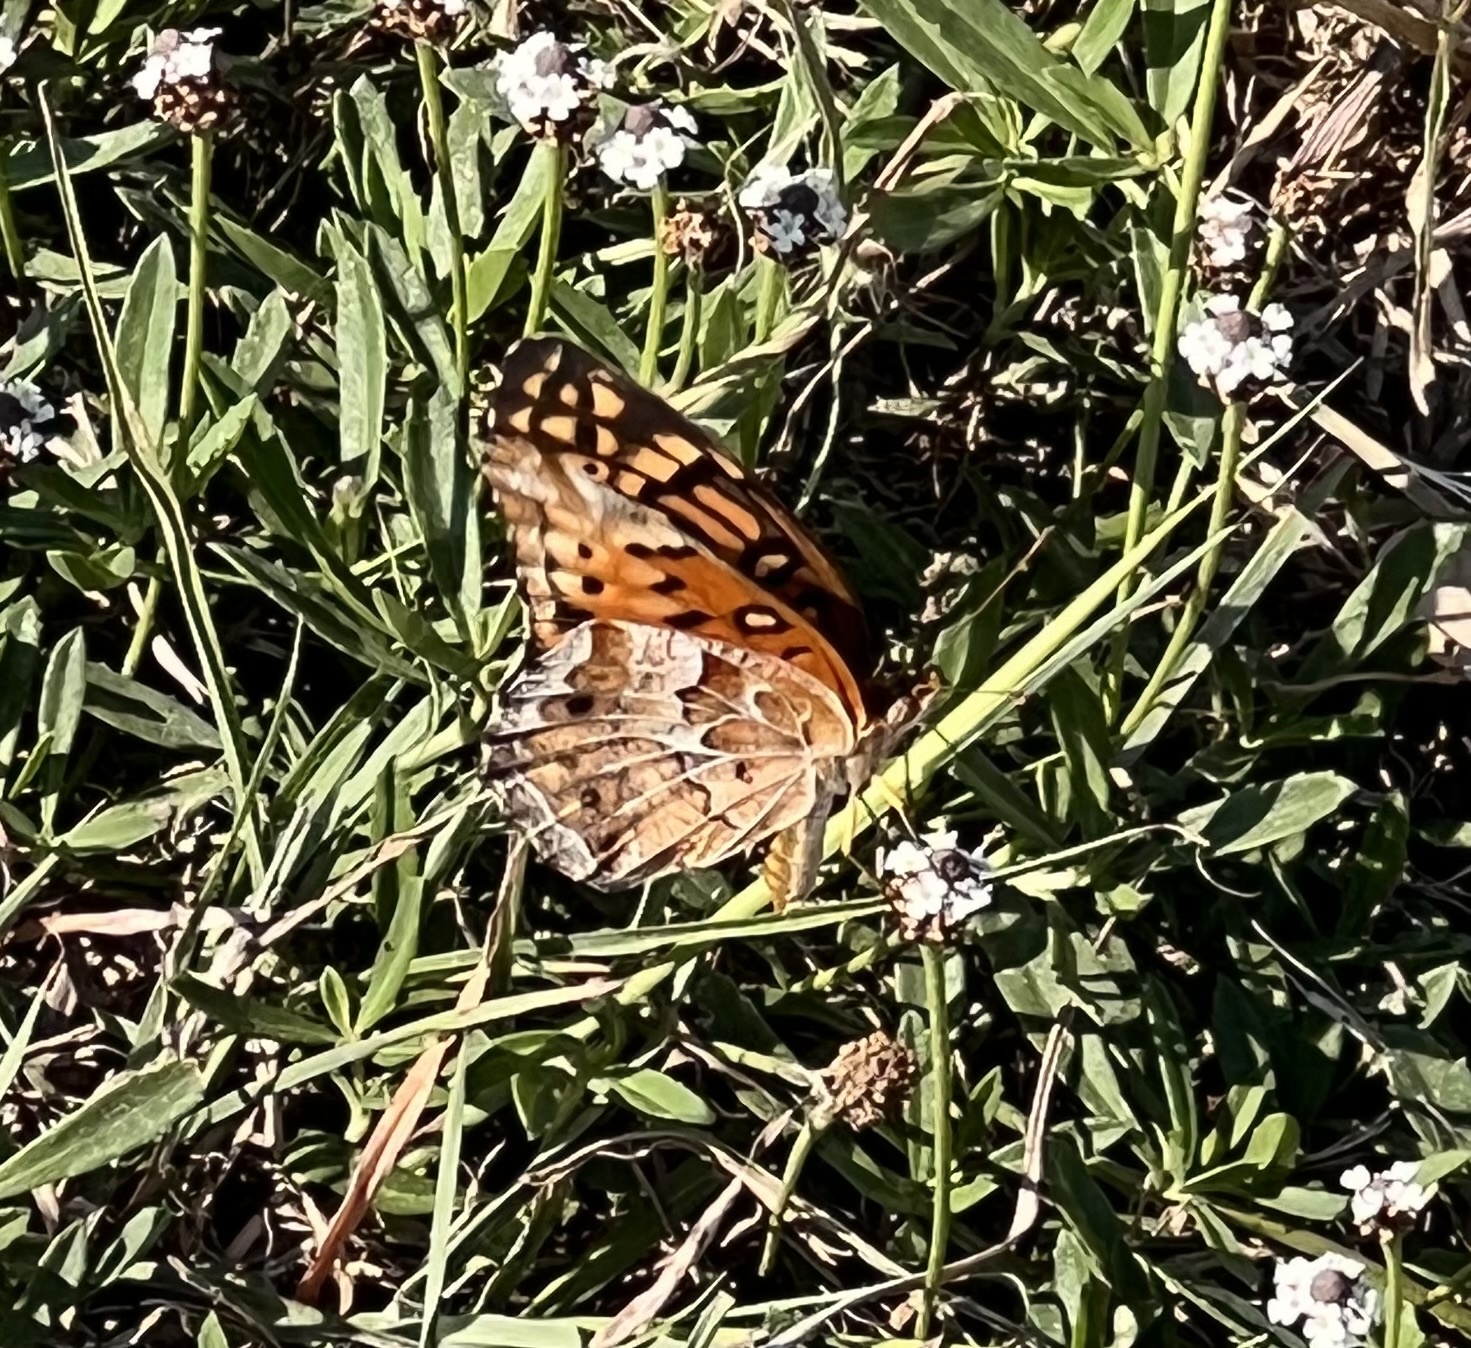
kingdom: Animalia
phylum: Arthropoda
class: Insecta
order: Lepidoptera
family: Nymphalidae
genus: Euptoieta
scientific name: Euptoieta claudia
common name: Variegated fritillary
